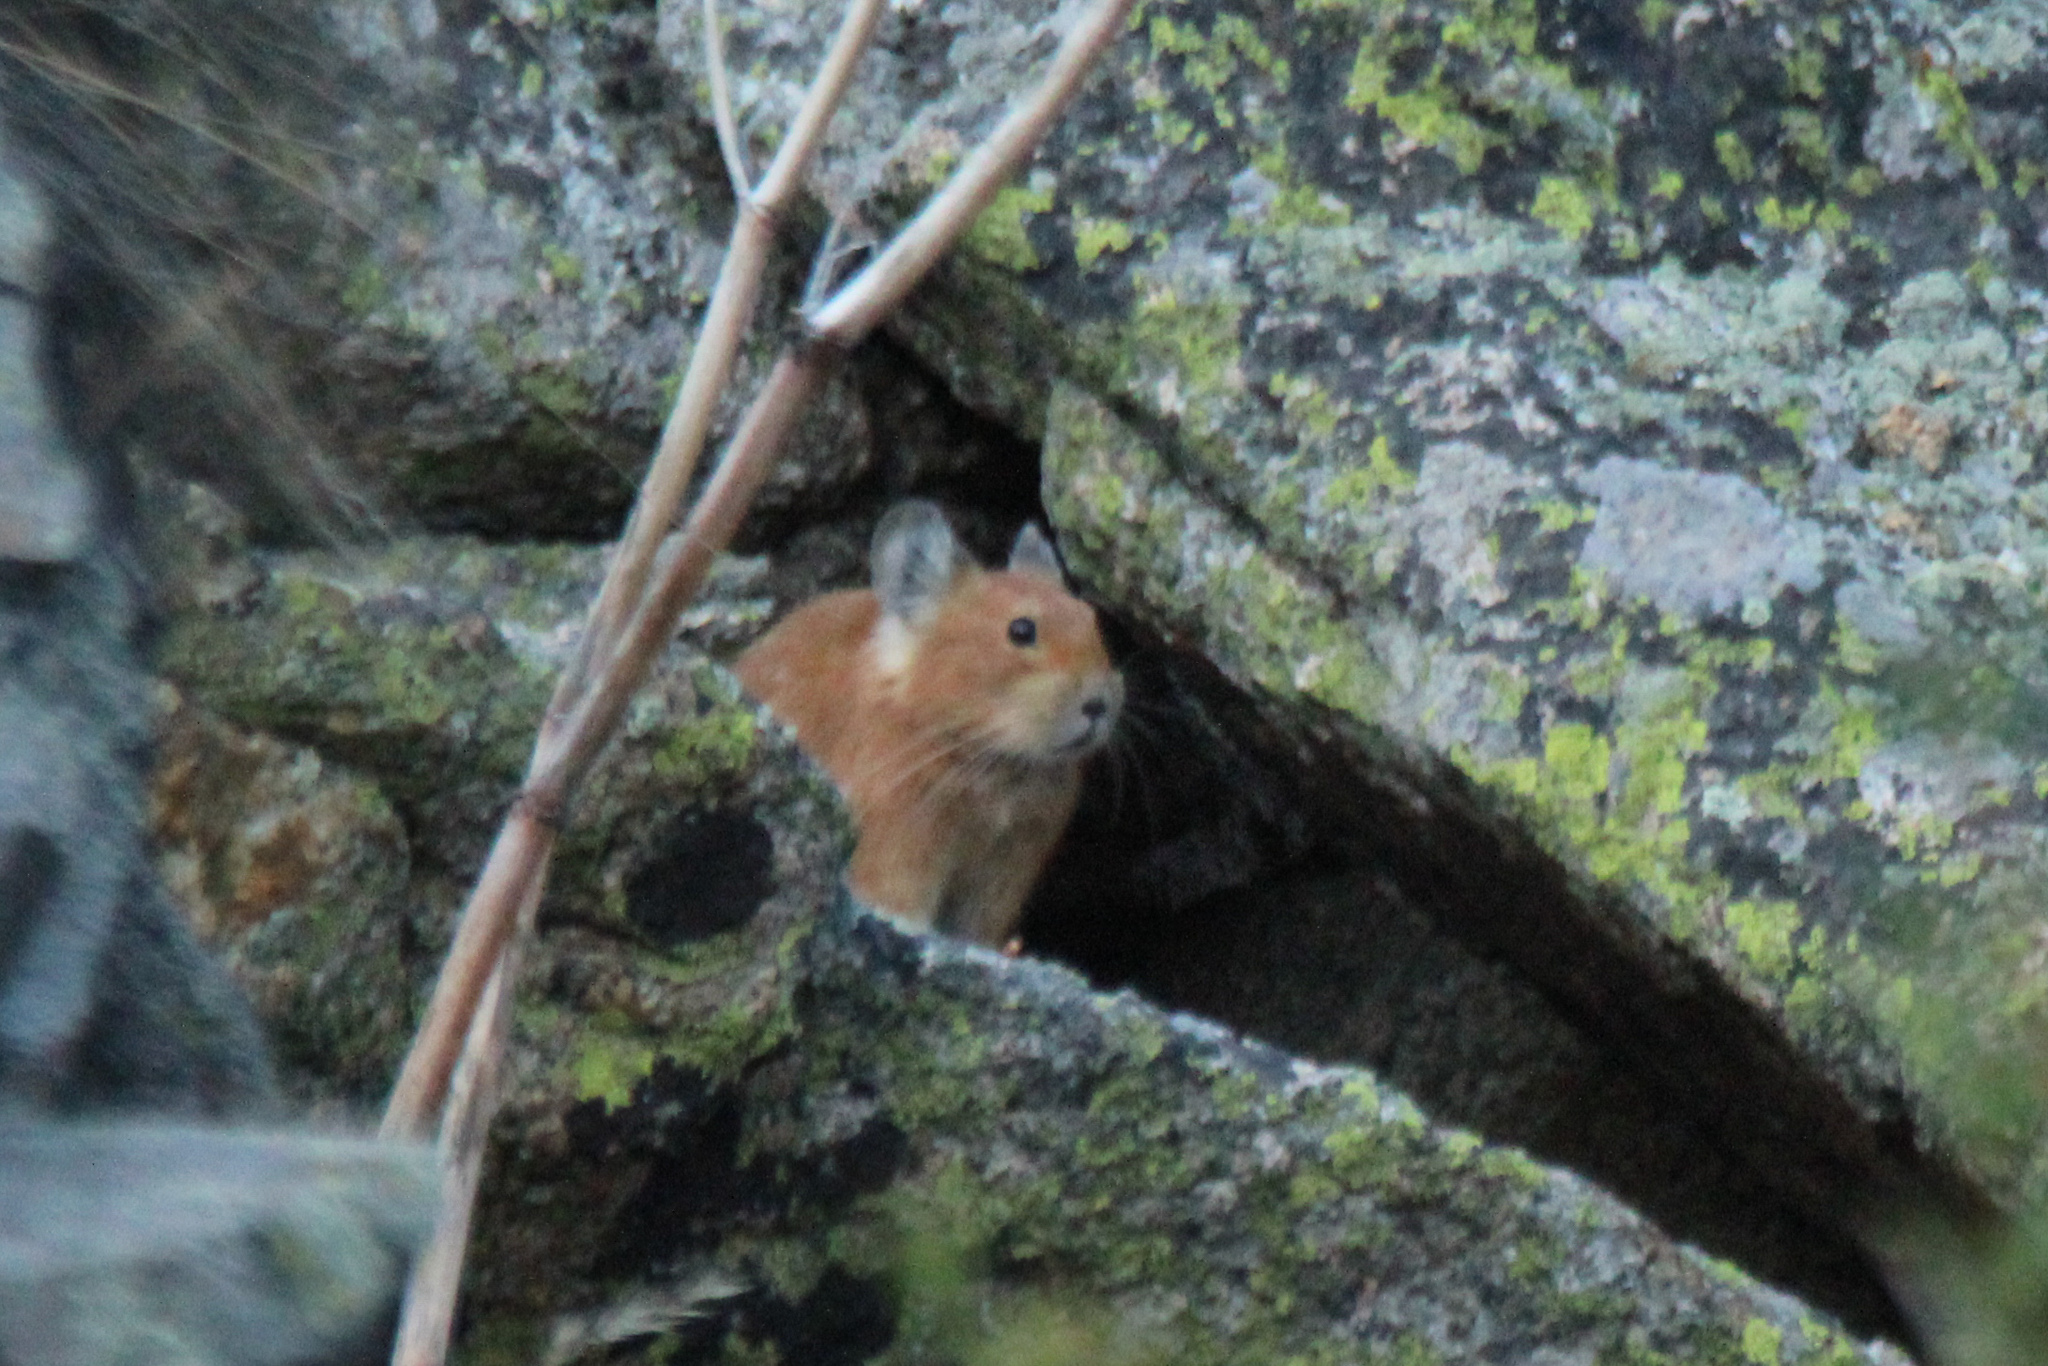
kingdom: Animalia
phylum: Chordata
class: Mammalia
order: Lagomorpha
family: Ochotonidae
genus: Ochotona
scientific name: Ochotona rutila
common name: Turkestan red pika
